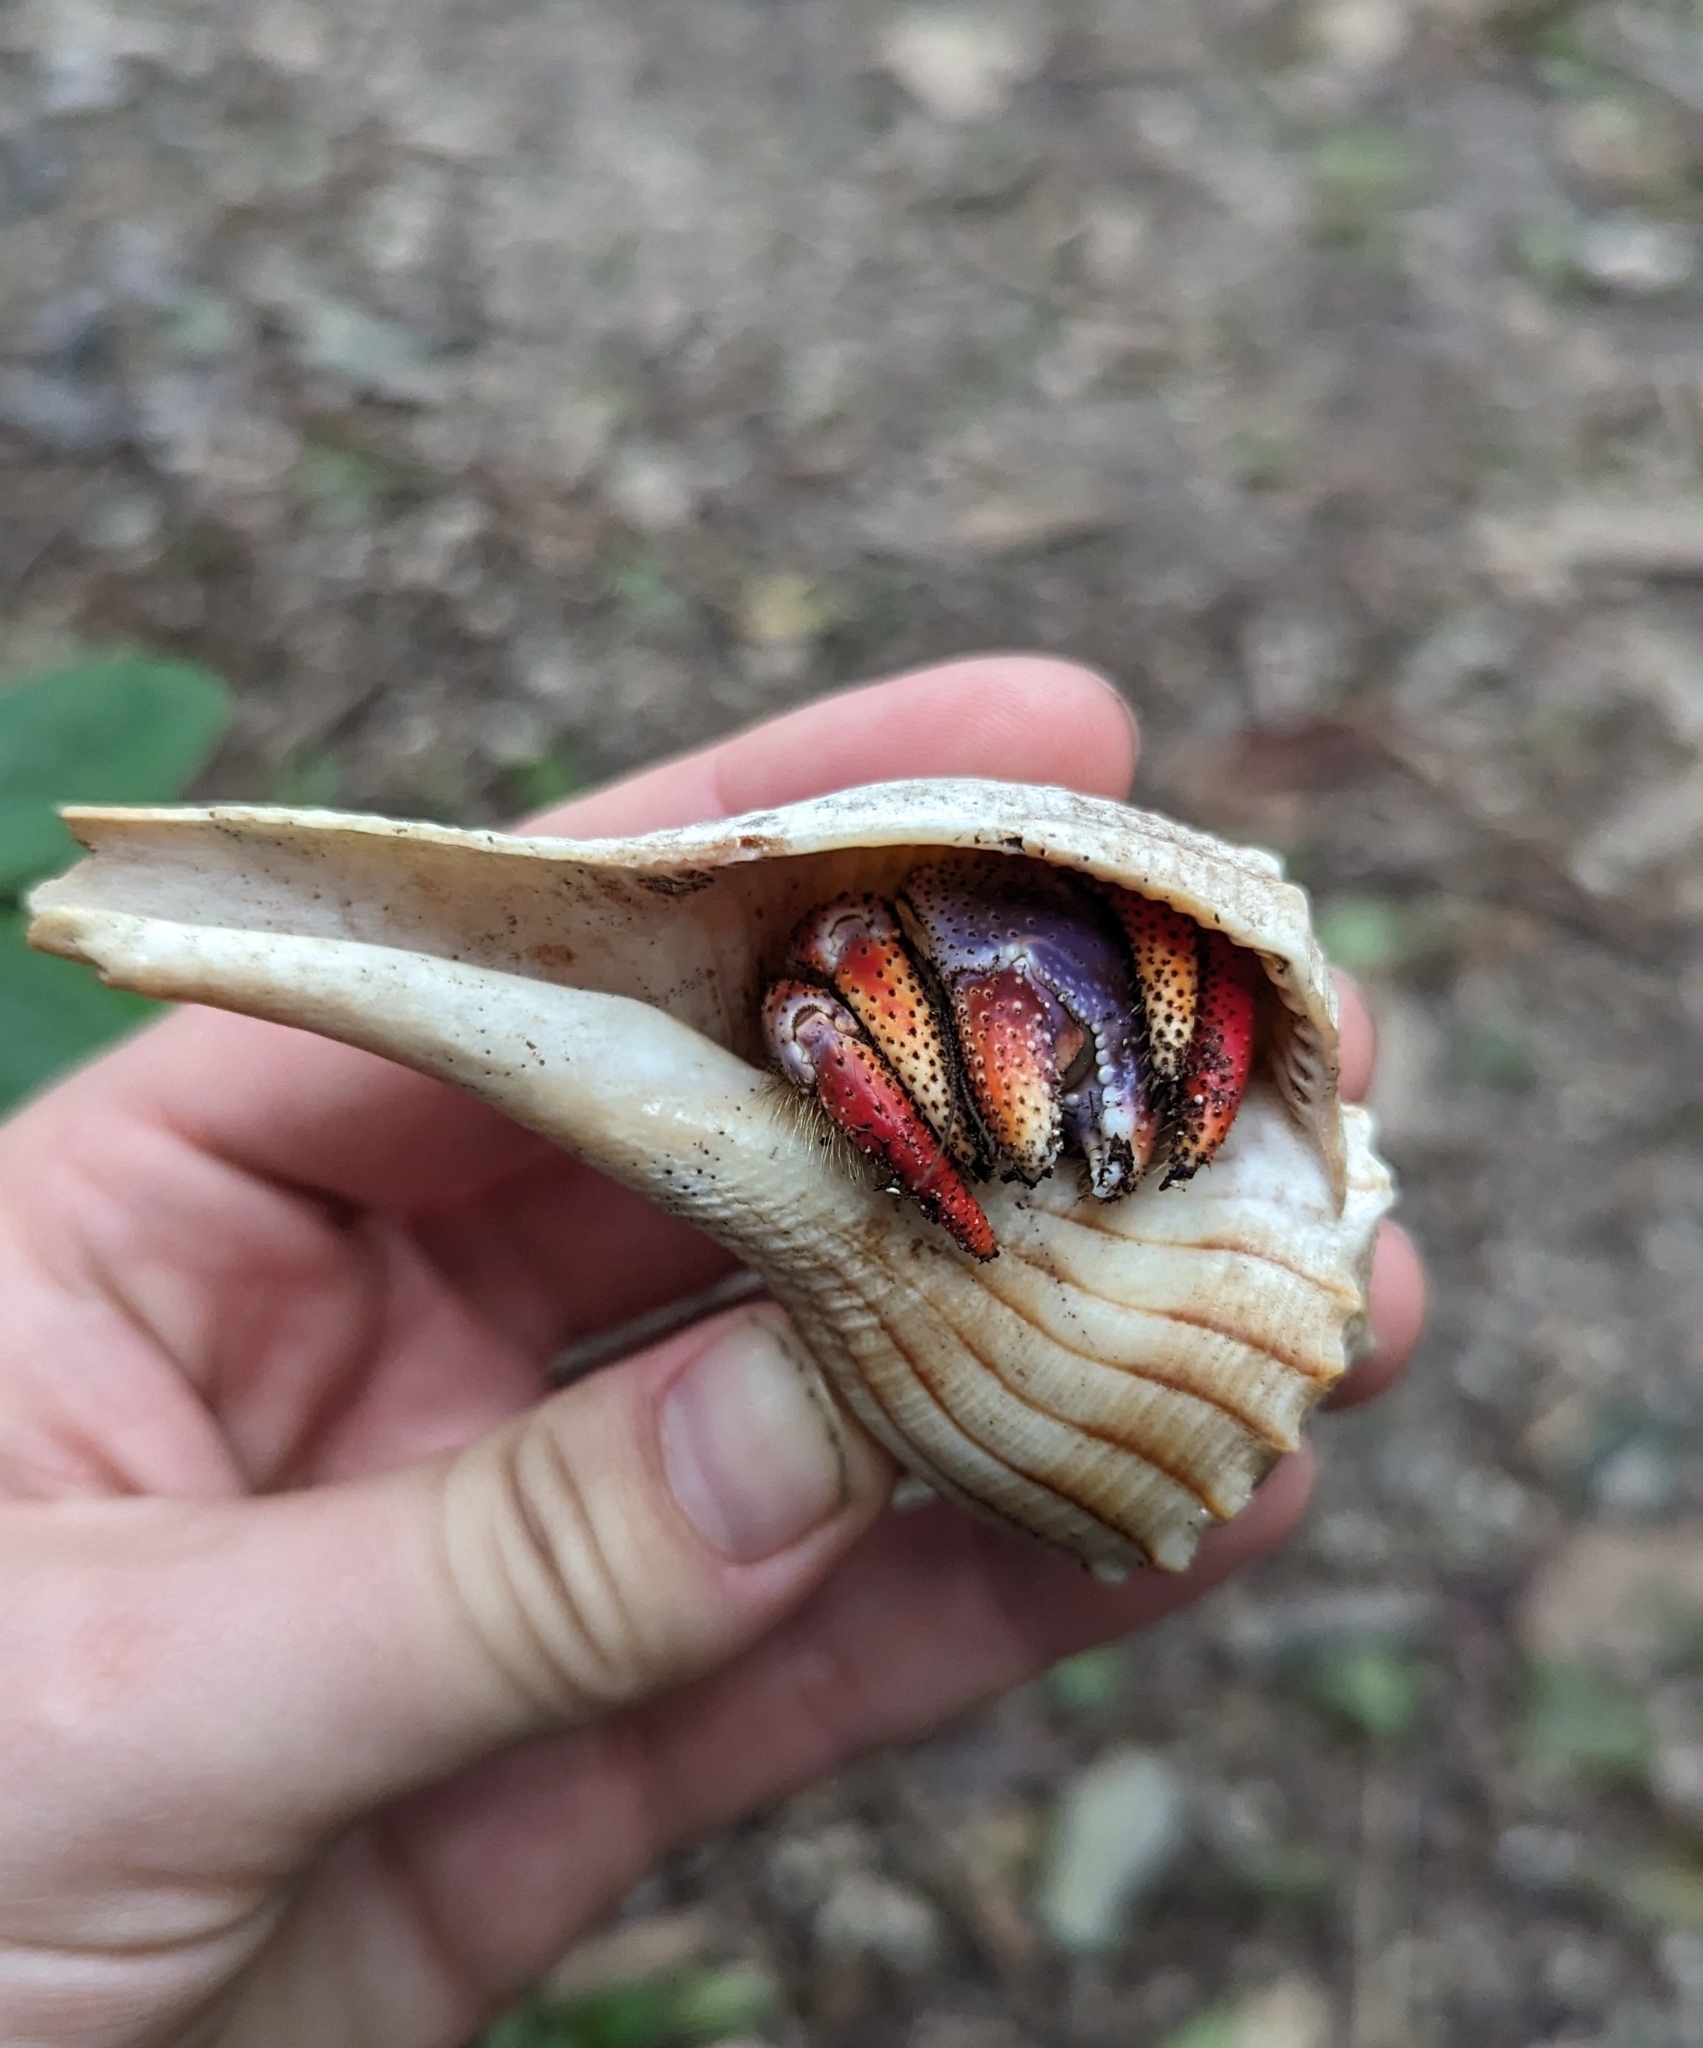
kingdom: Animalia
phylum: Arthropoda
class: Malacostraca
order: Decapoda
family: Coenobitidae
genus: Coenobita
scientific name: Coenobita clypeatus
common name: Caribbean hermit crab
